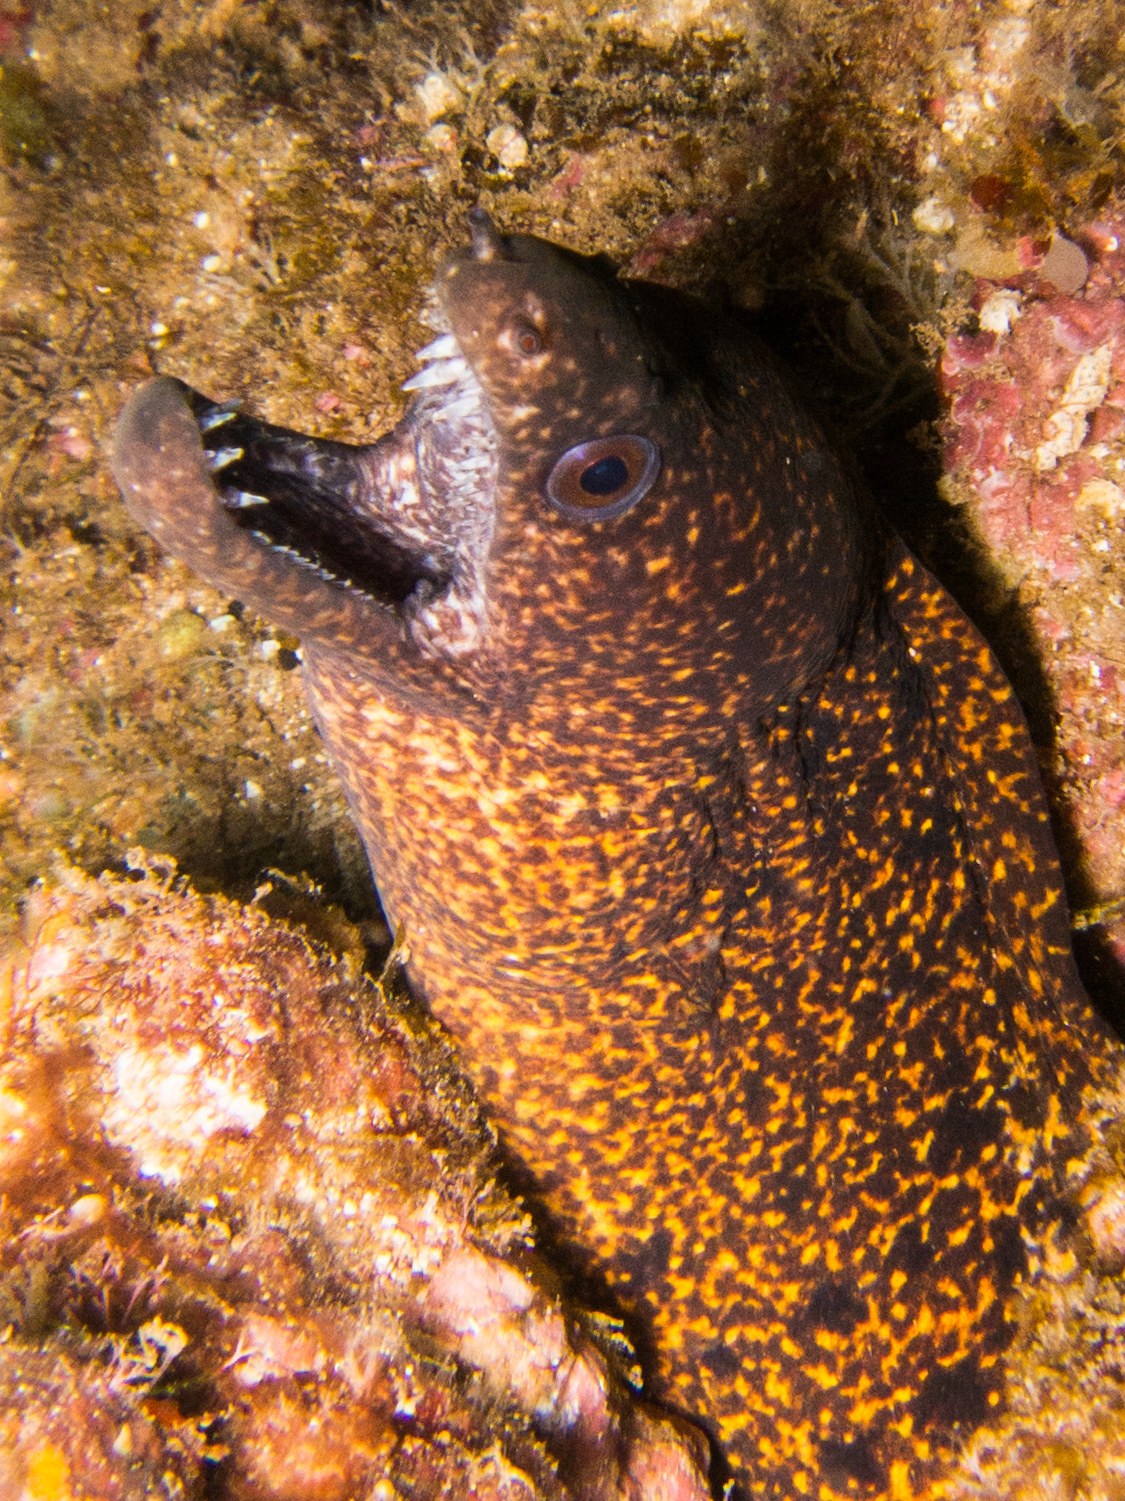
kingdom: Animalia
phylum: Chordata
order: Anguilliformes
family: Muraenidae
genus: Gymnothorax
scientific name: Gymnothorax eurostus
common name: Stout moray
